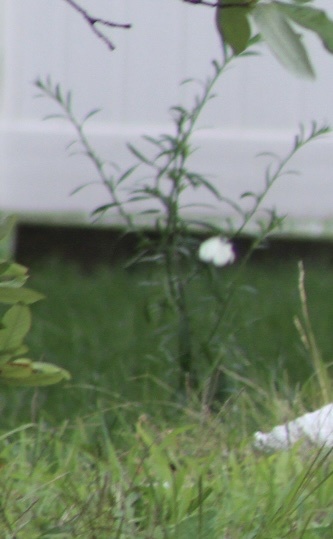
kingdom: Animalia
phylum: Arthropoda
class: Insecta
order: Lepidoptera
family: Pieridae
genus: Pieris
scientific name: Pieris rapae
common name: Small white
